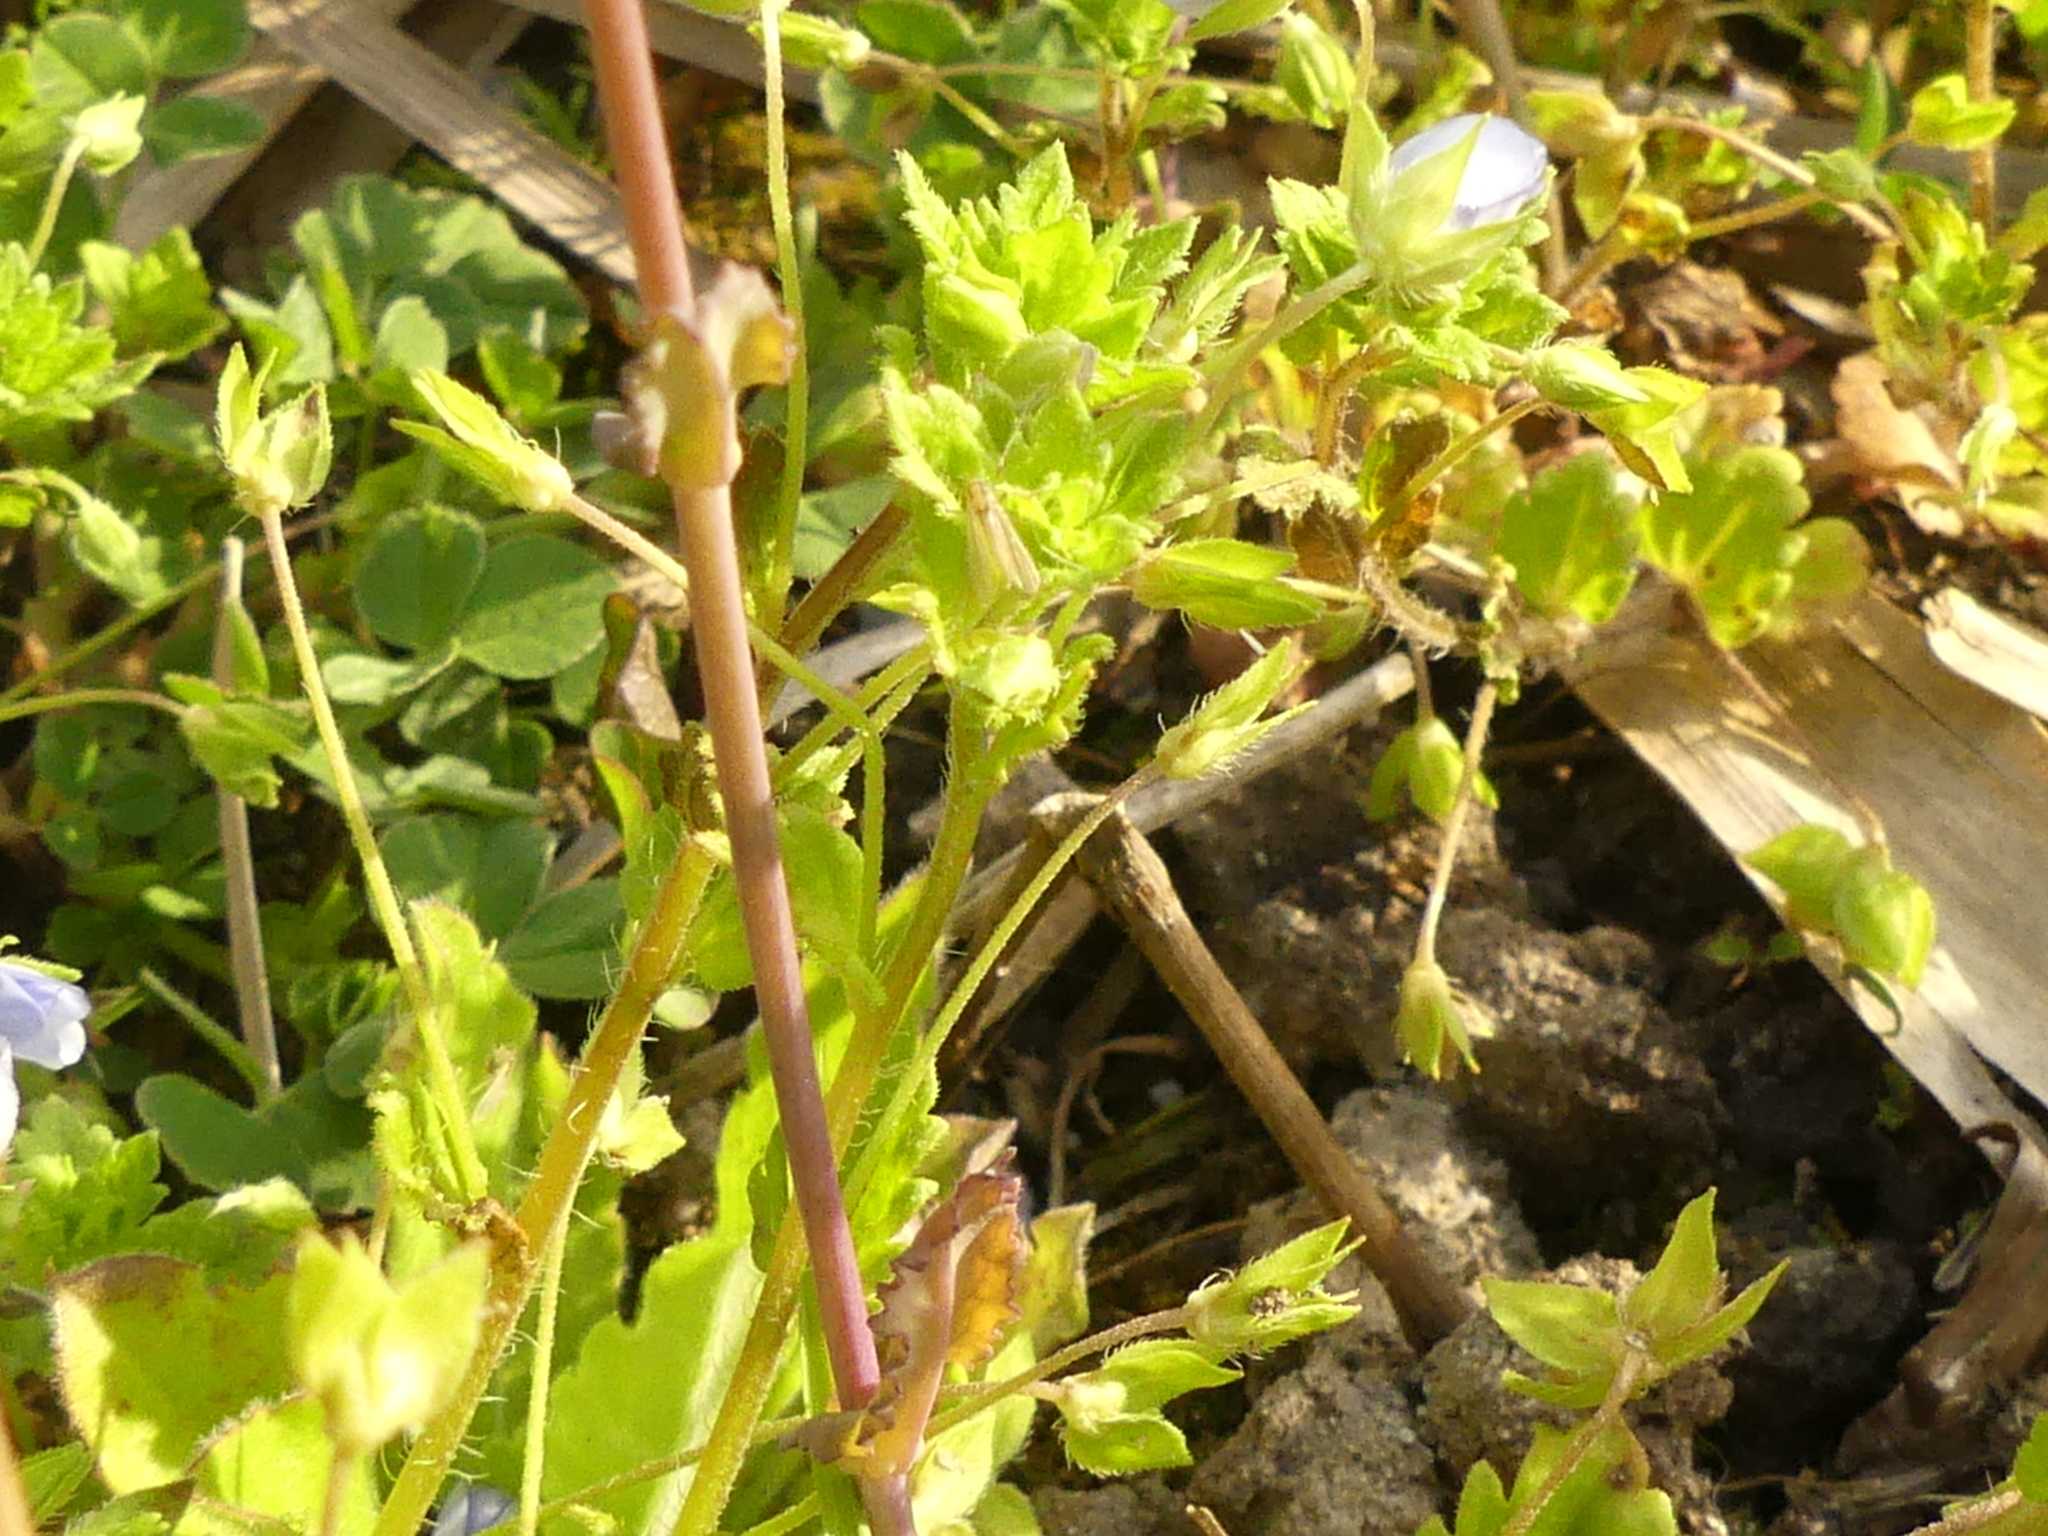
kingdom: Plantae
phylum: Tracheophyta
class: Magnoliopsida
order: Lamiales
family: Plantaginaceae
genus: Veronica
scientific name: Veronica persica
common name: Common field-speedwell
